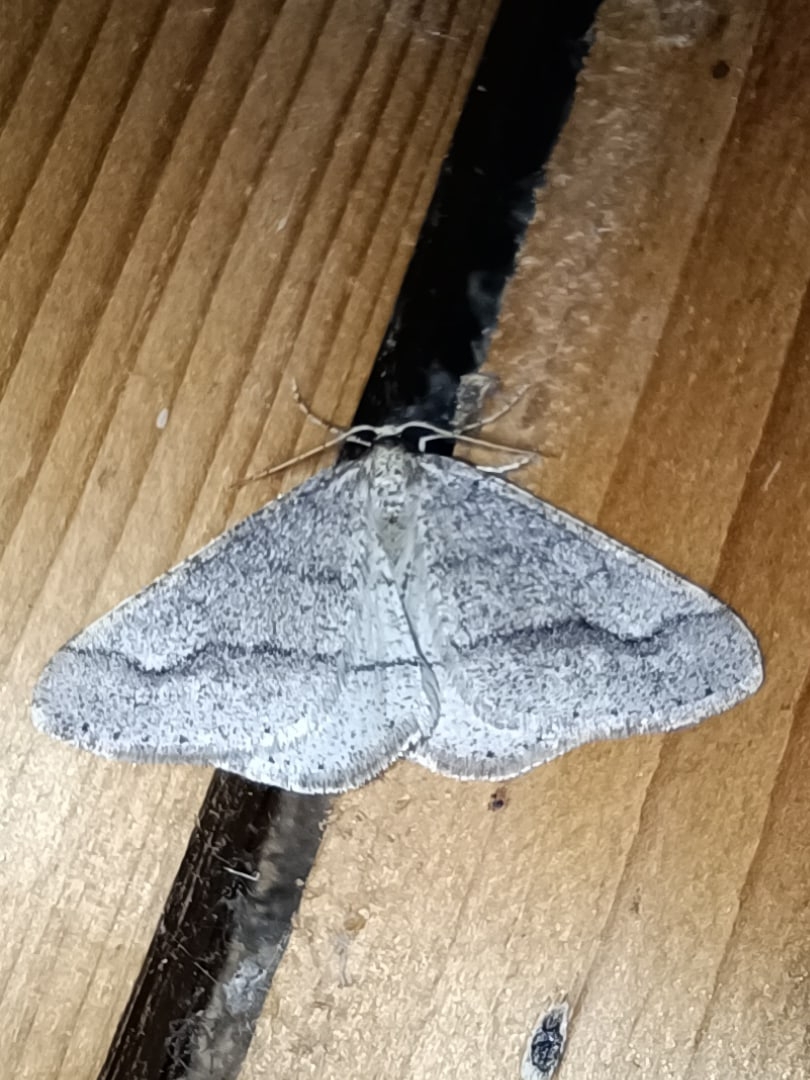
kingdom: Animalia
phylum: Arthropoda
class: Insecta
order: Lepidoptera
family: Geometridae
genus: Agriopis
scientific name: Agriopis marginaria
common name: Dotted border
